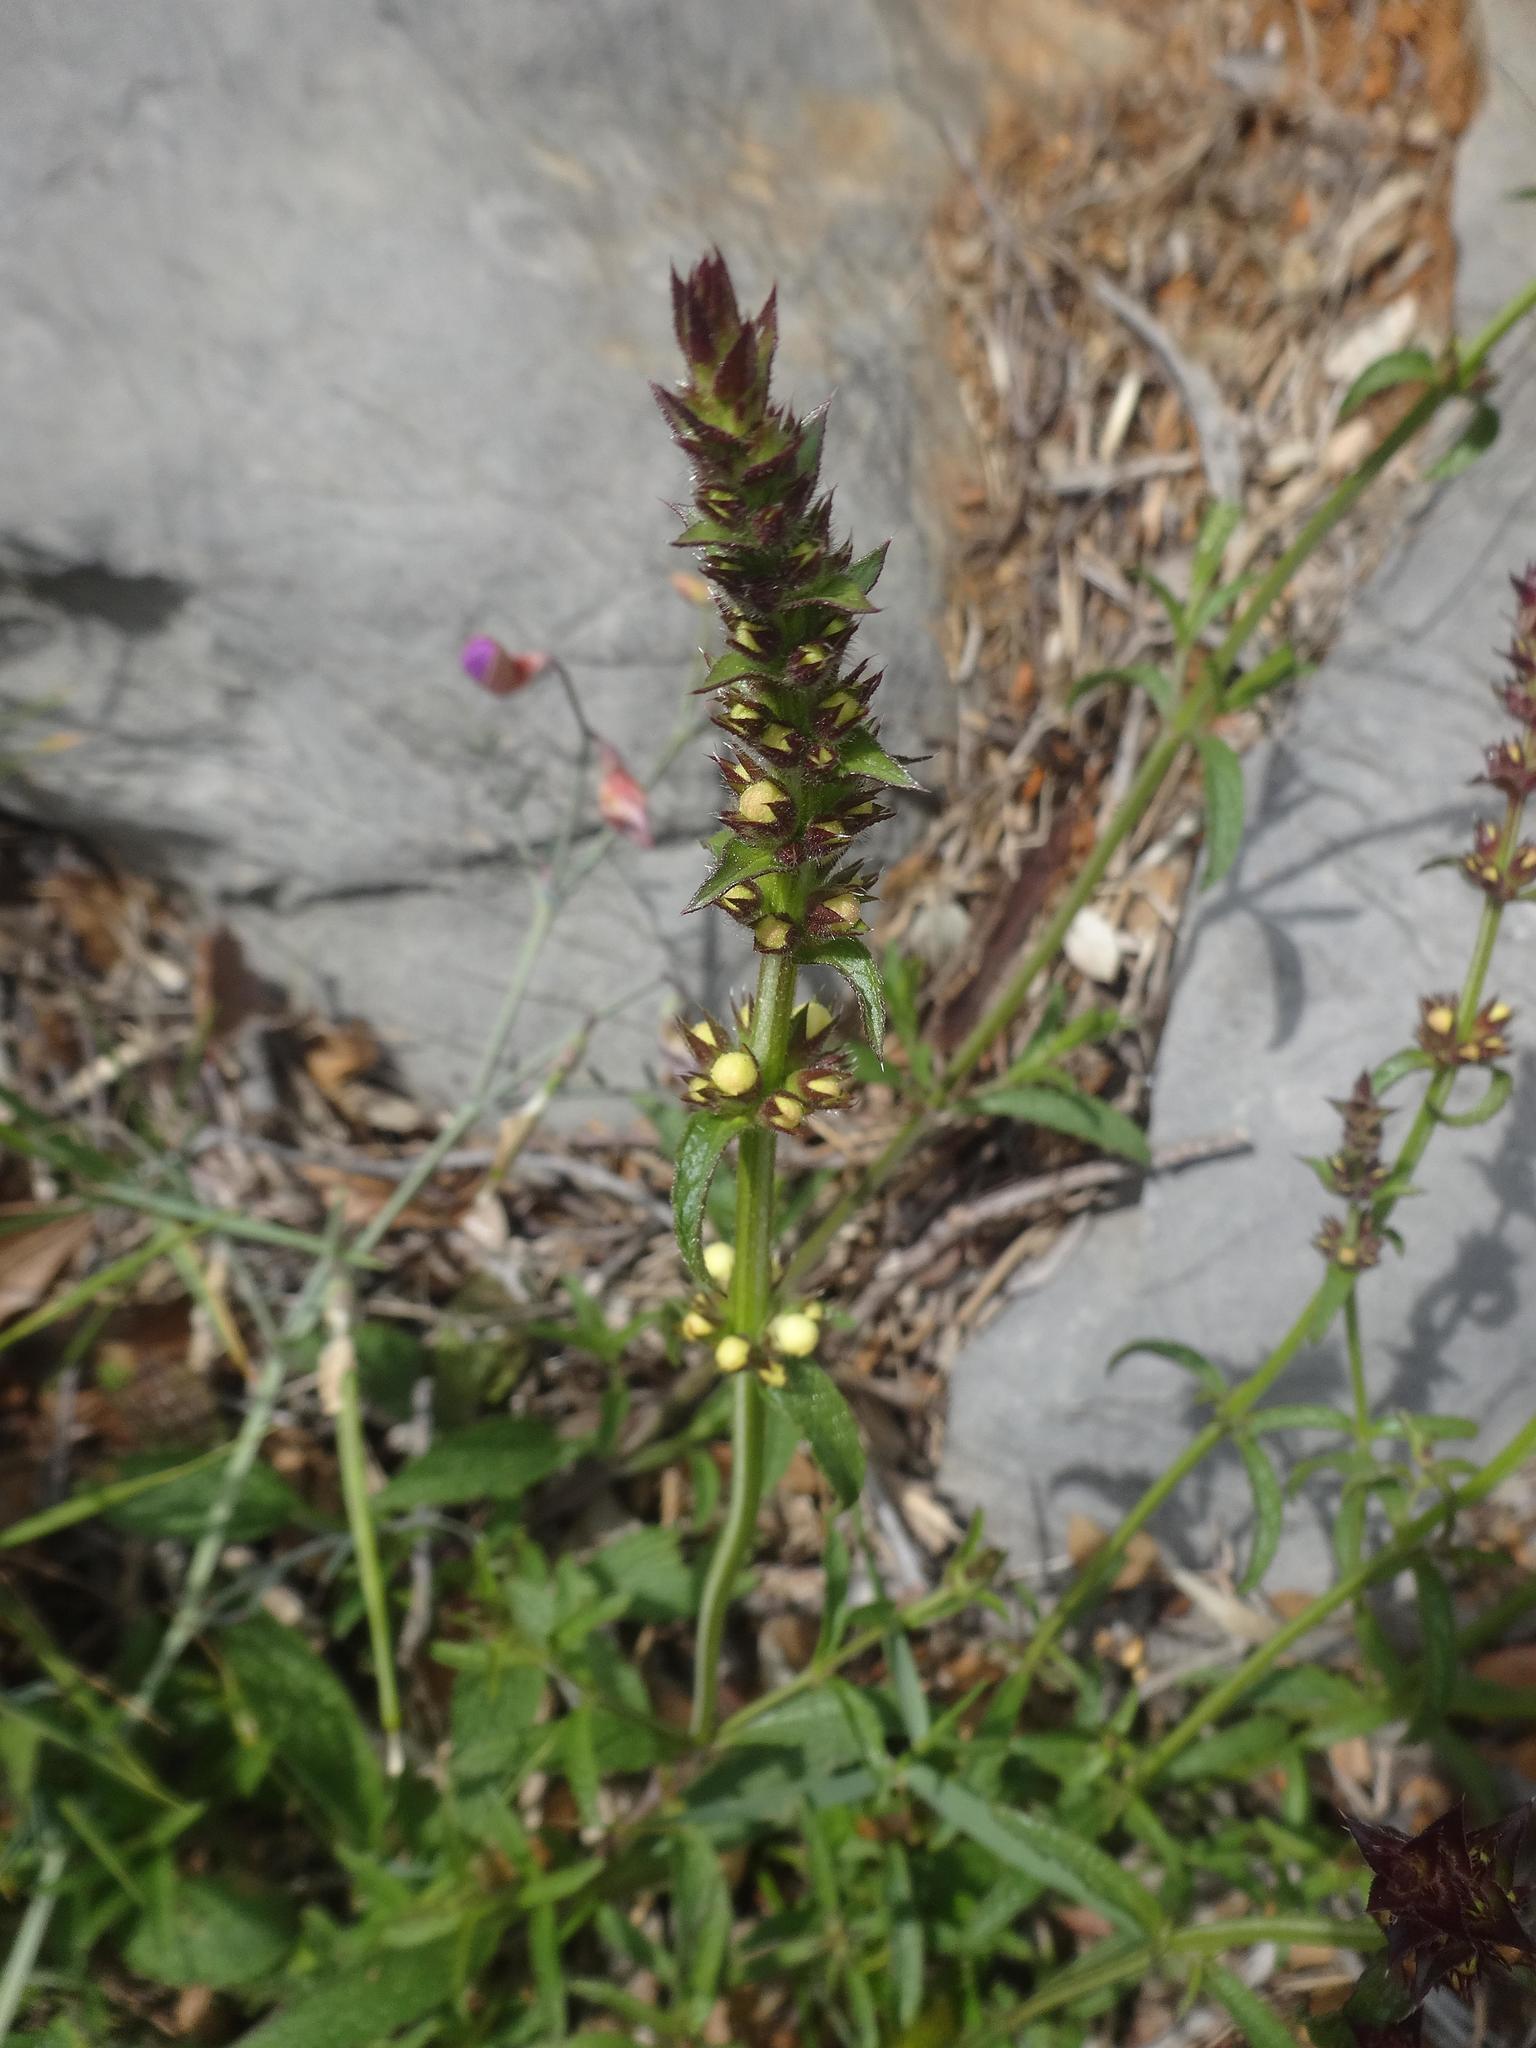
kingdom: Plantae
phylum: Tracheophyta
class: Magnoliopsida
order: Lamiales
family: Lamiaceae
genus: Stachys
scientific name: Stachys recta
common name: Perennial yellow-woundwort
